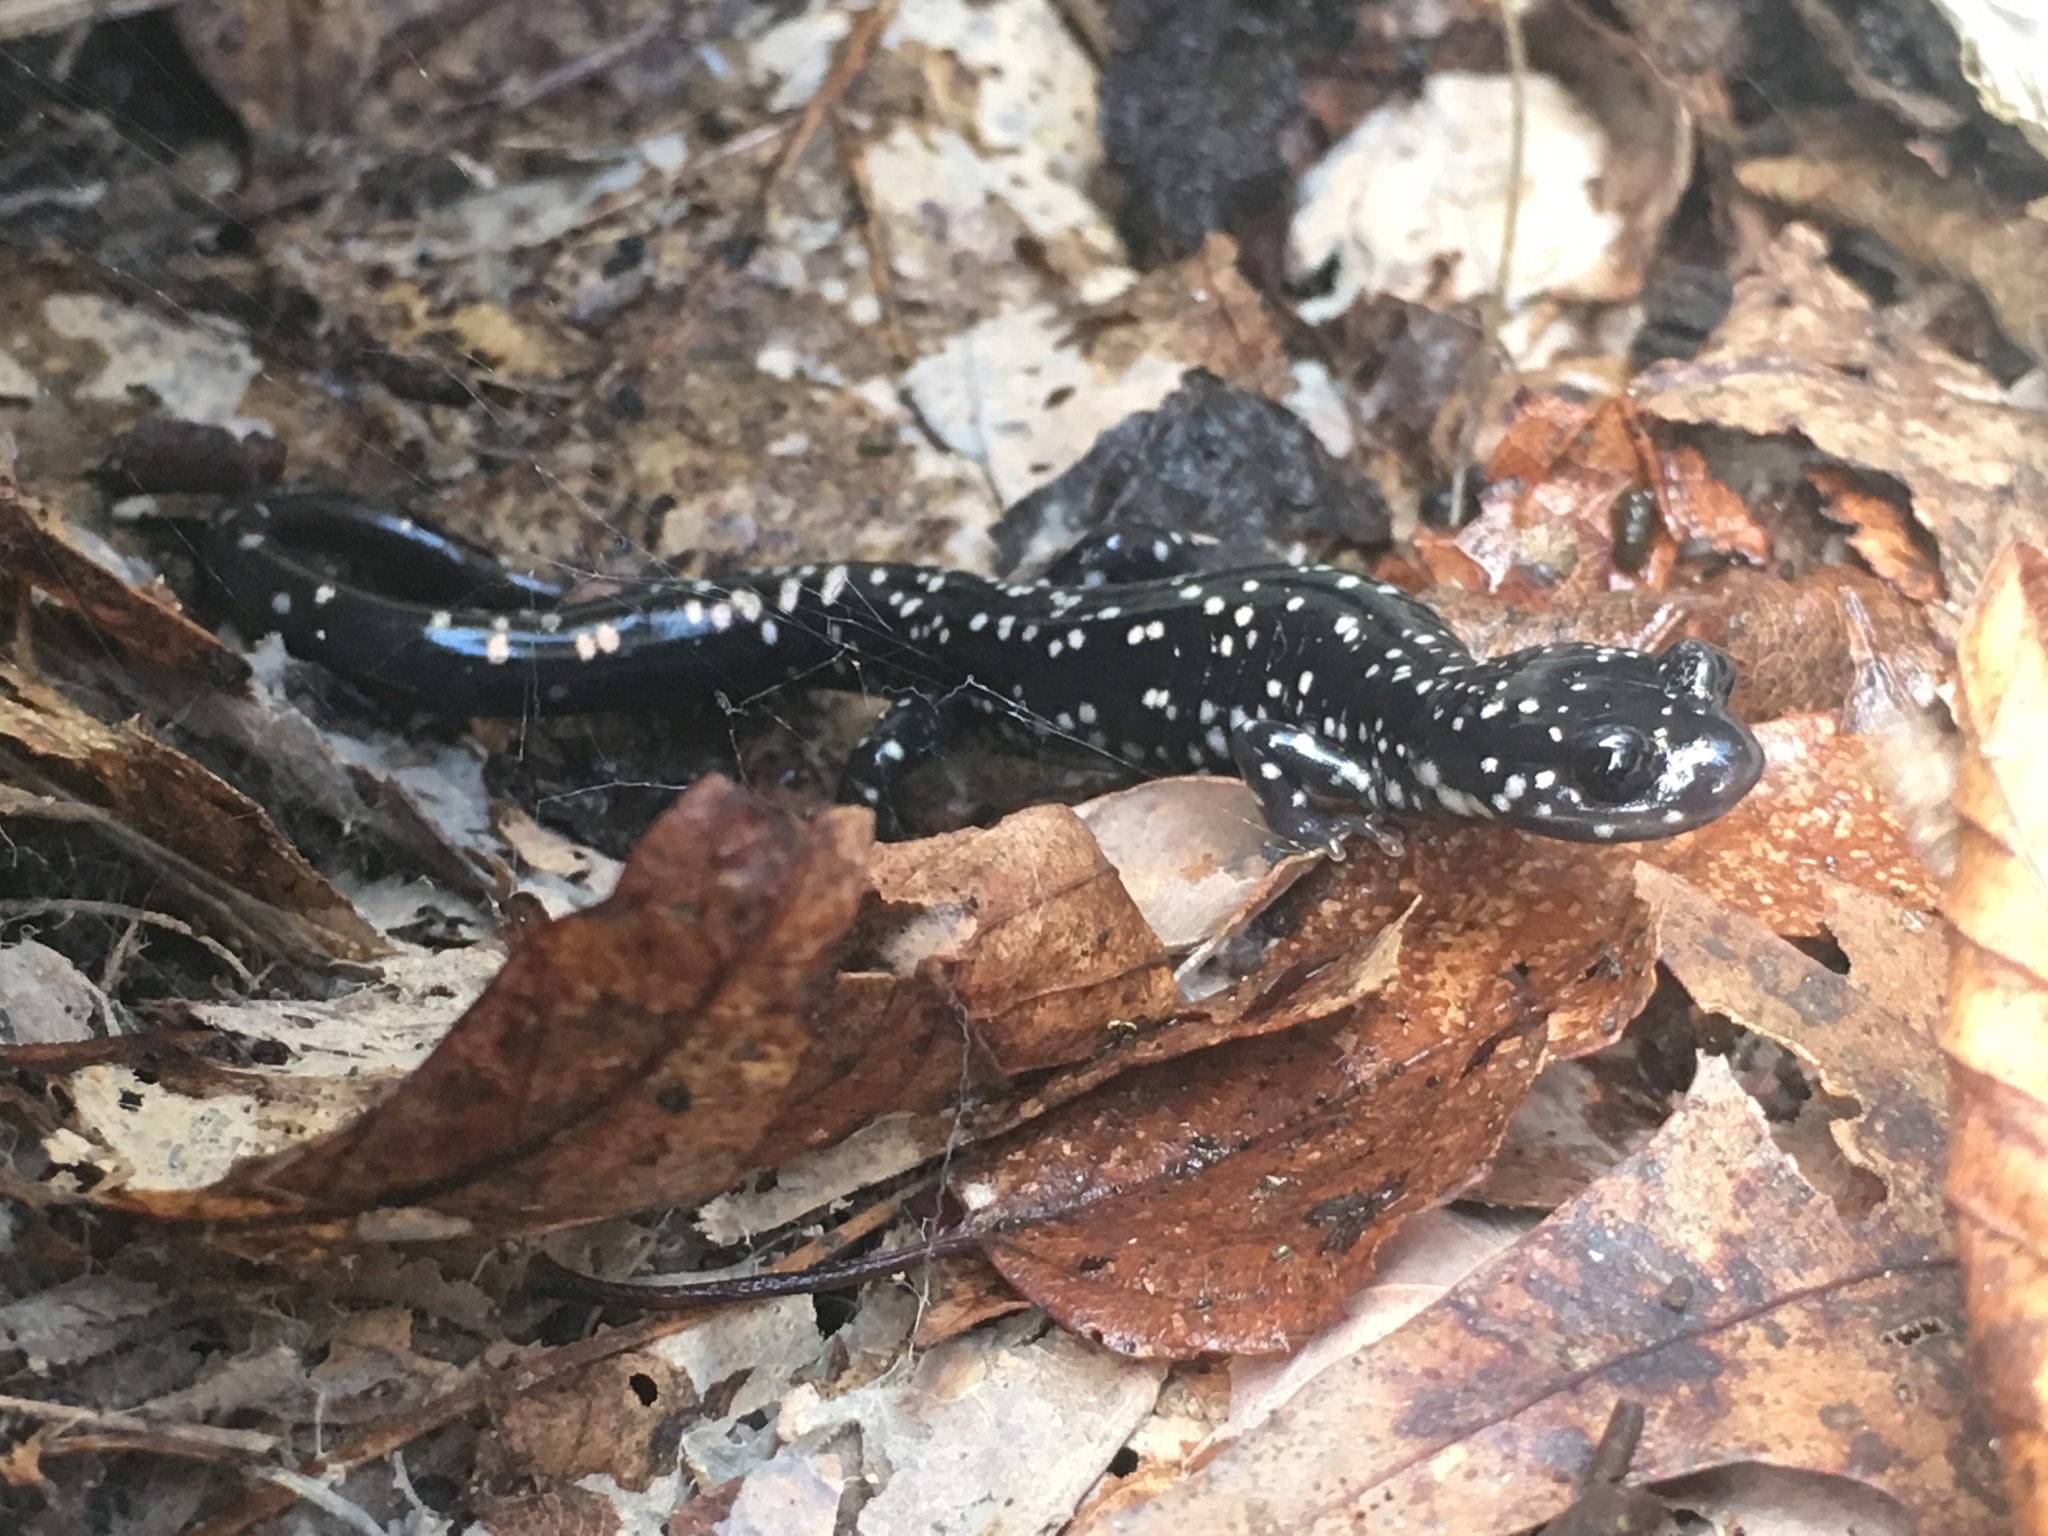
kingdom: Animalia
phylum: Chordata
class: Amphibia
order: Caudata
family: Plethodontidae
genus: Plethodon
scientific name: Plethodon glutinosus
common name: Northern slimy salamander
